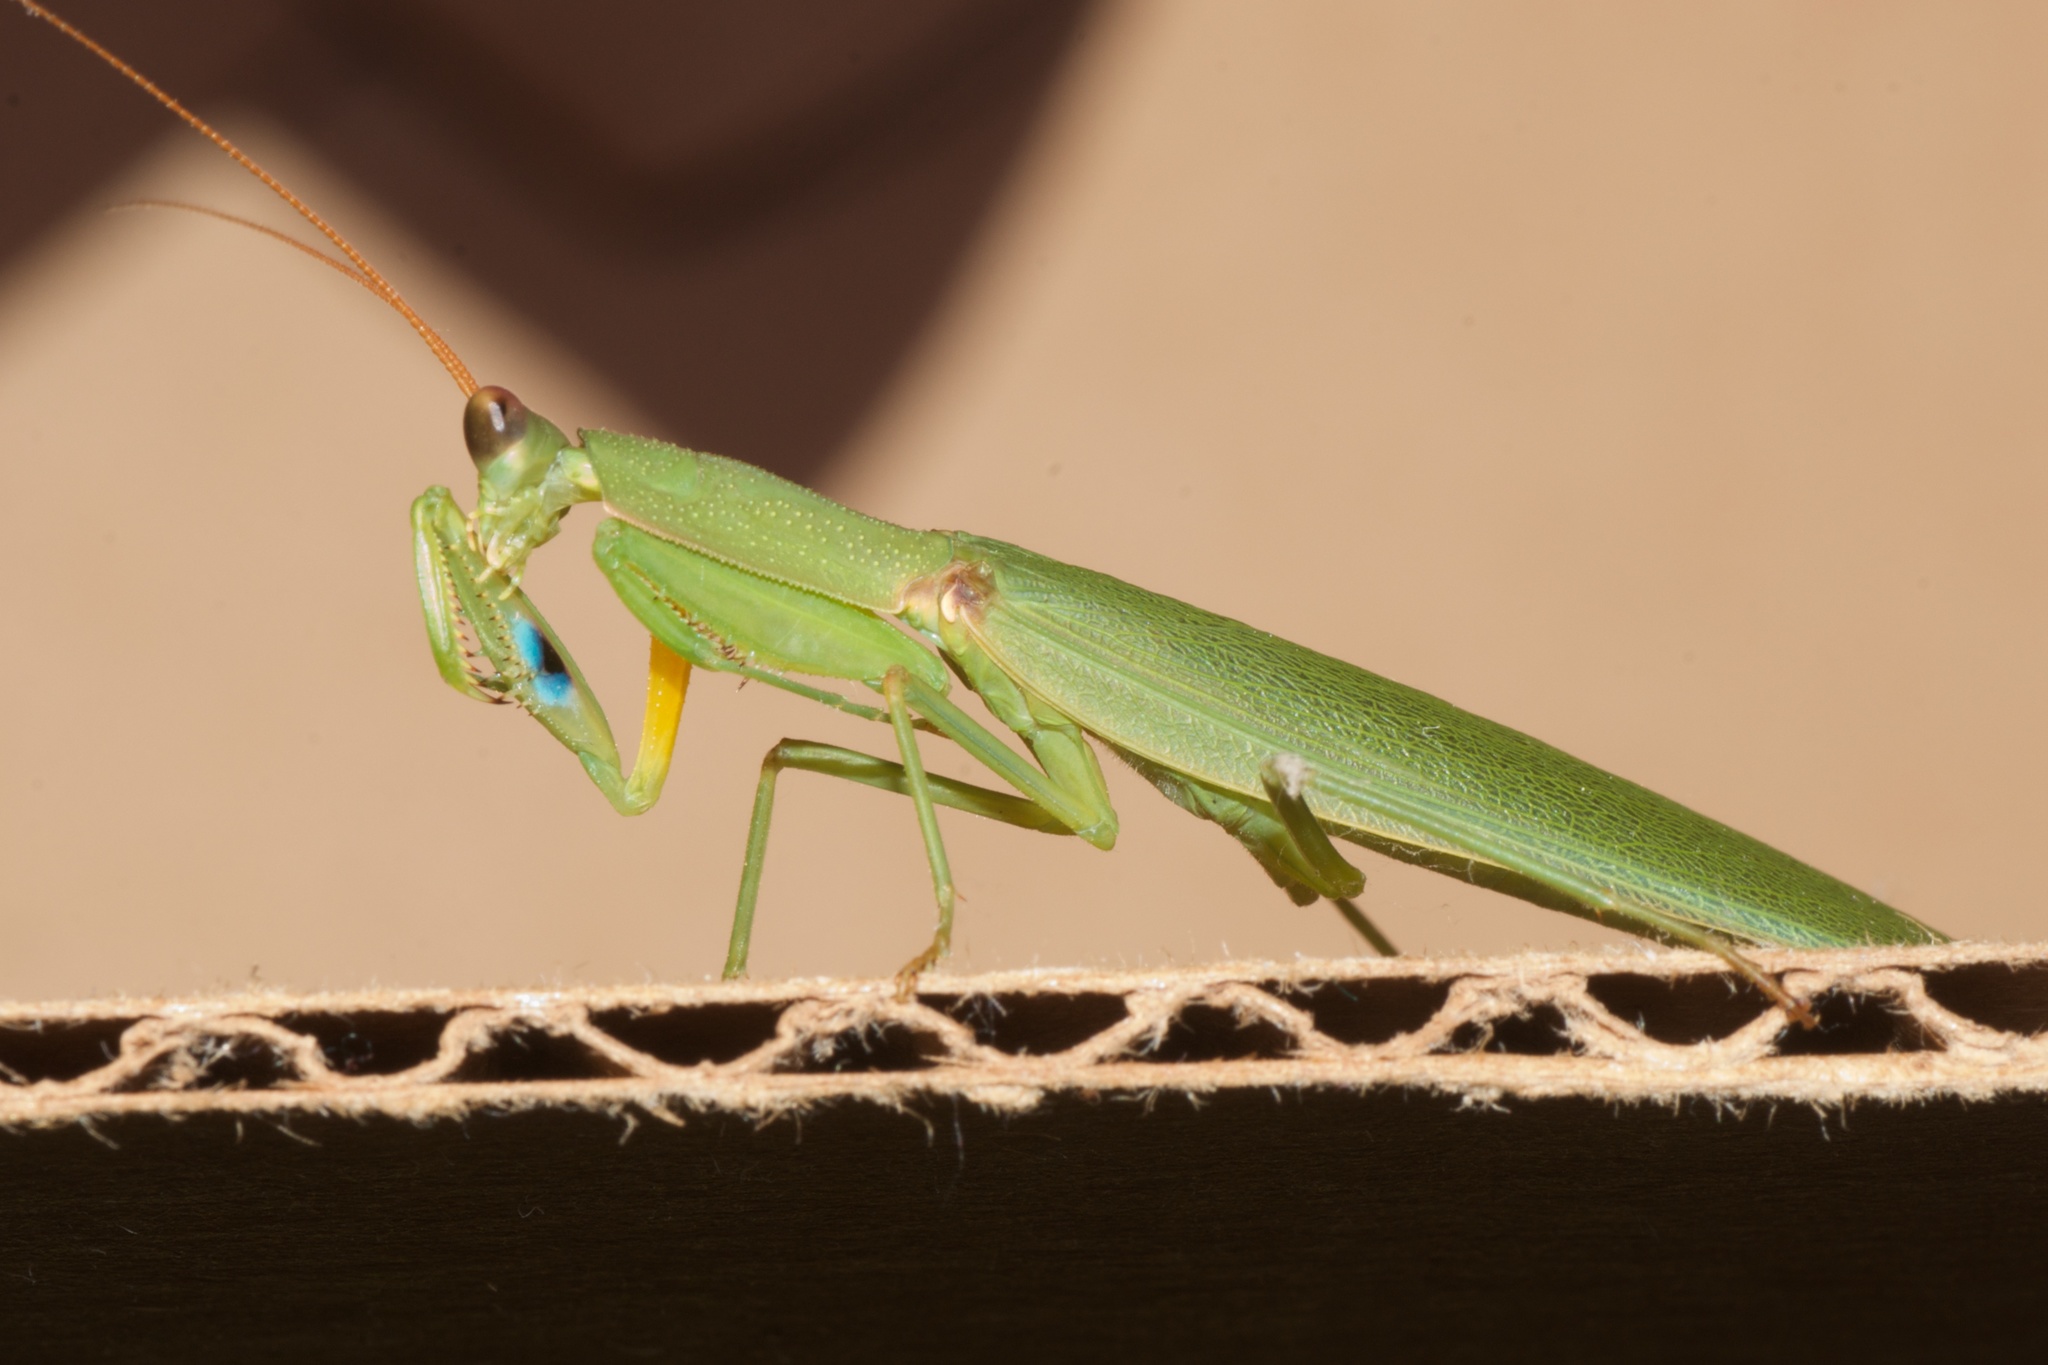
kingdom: Animalia
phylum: Arthropoda
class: Insecta
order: Mantodea
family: Mantidae
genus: Orthodera
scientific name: Orthodera novaezealandiae
